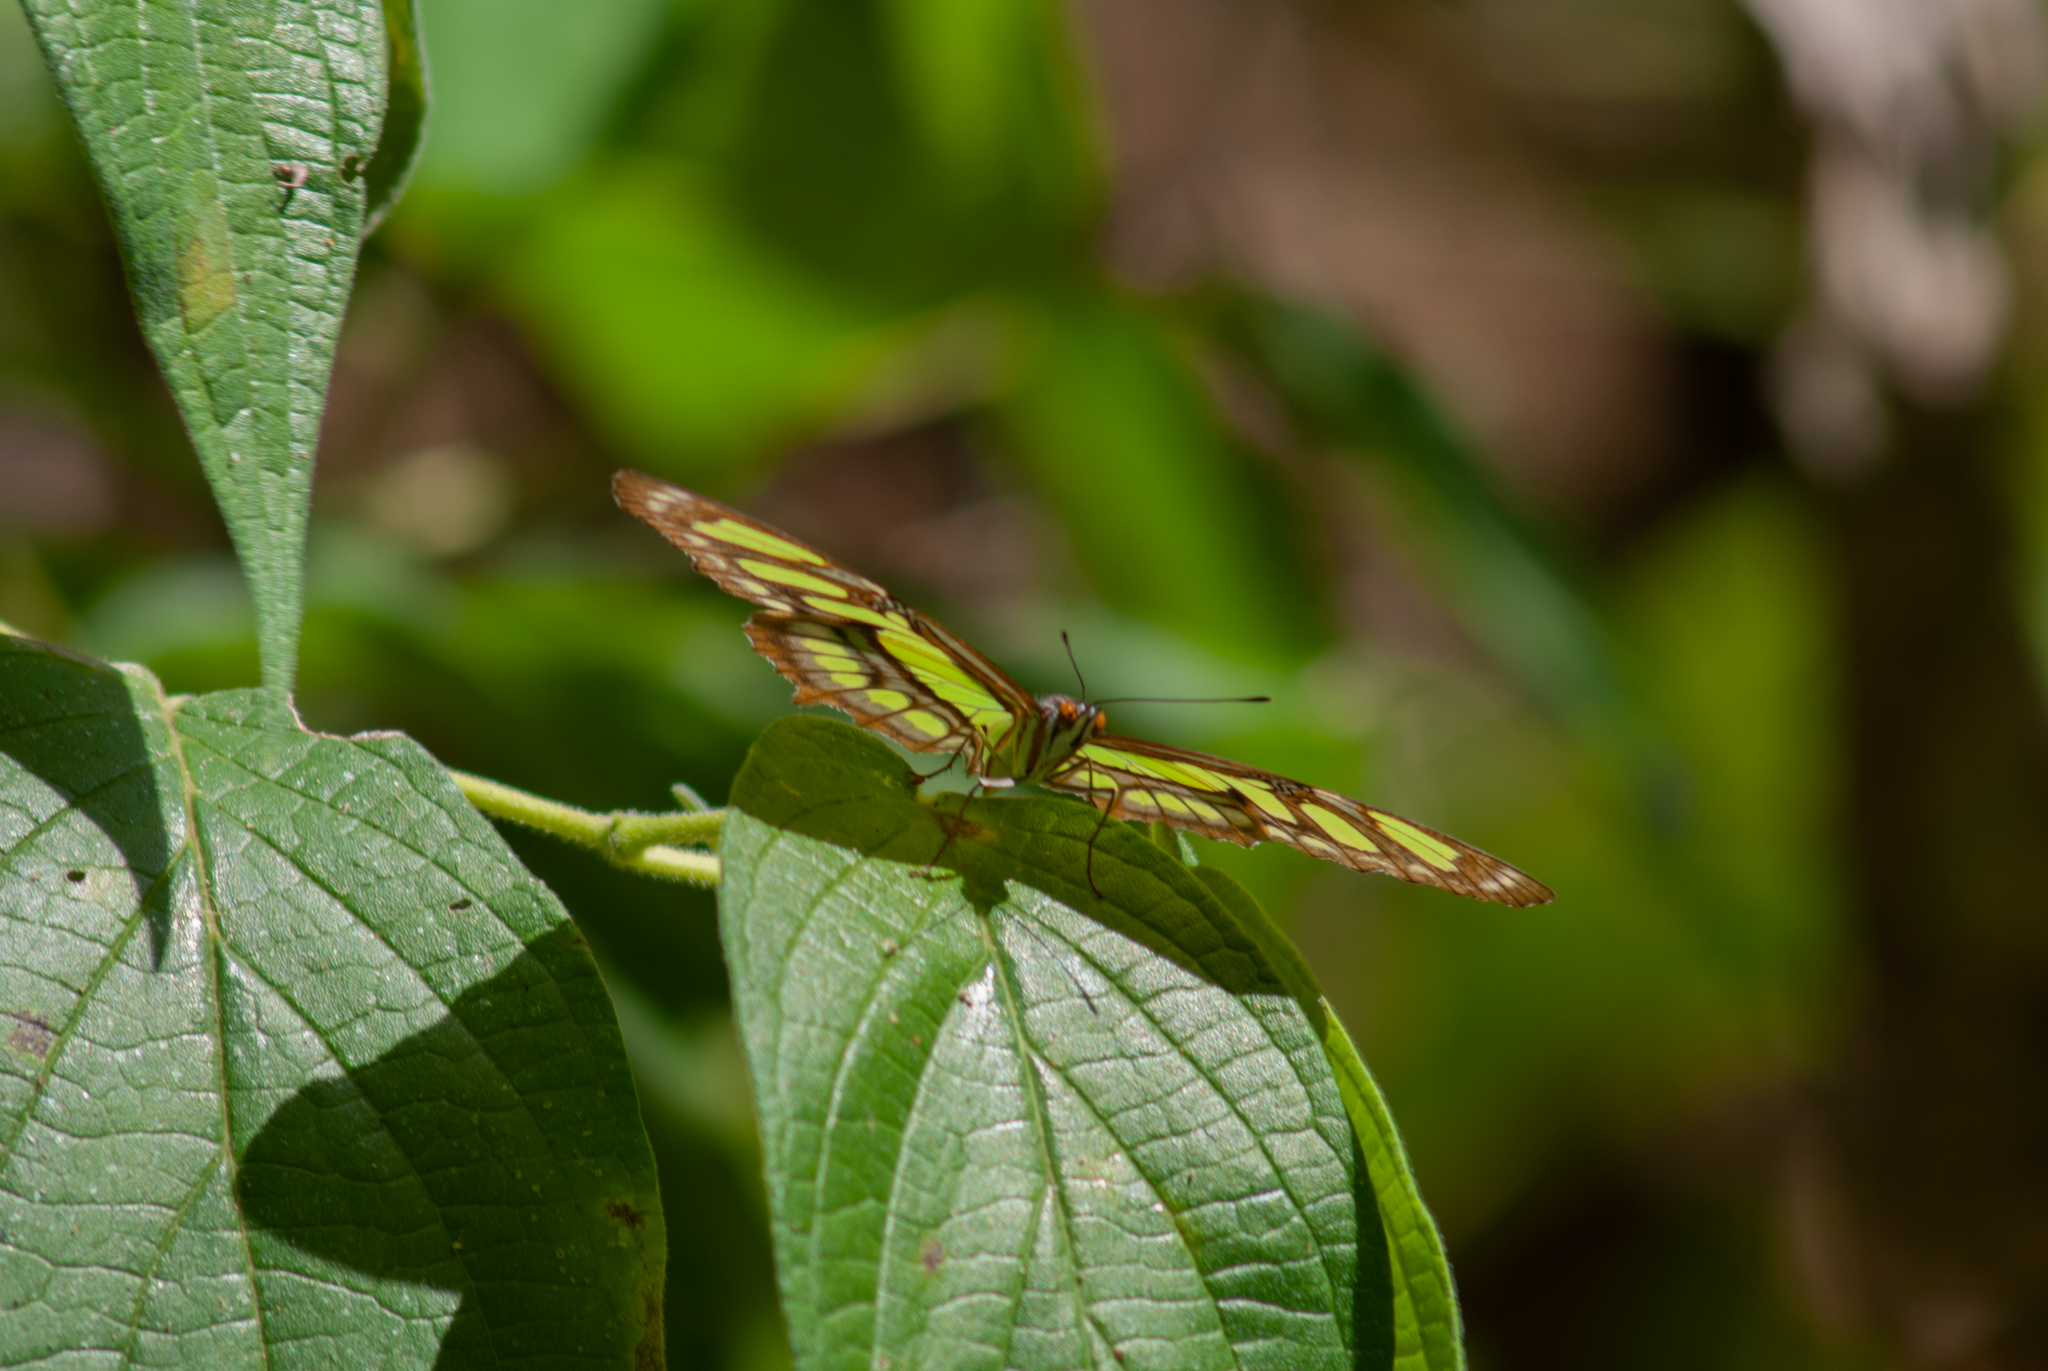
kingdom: Animalia
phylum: Arthropoda
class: Insecta
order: Lepidoptera
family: Nymphalidae
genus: Siproeta
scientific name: Siproeta stelenes
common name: Malachite
